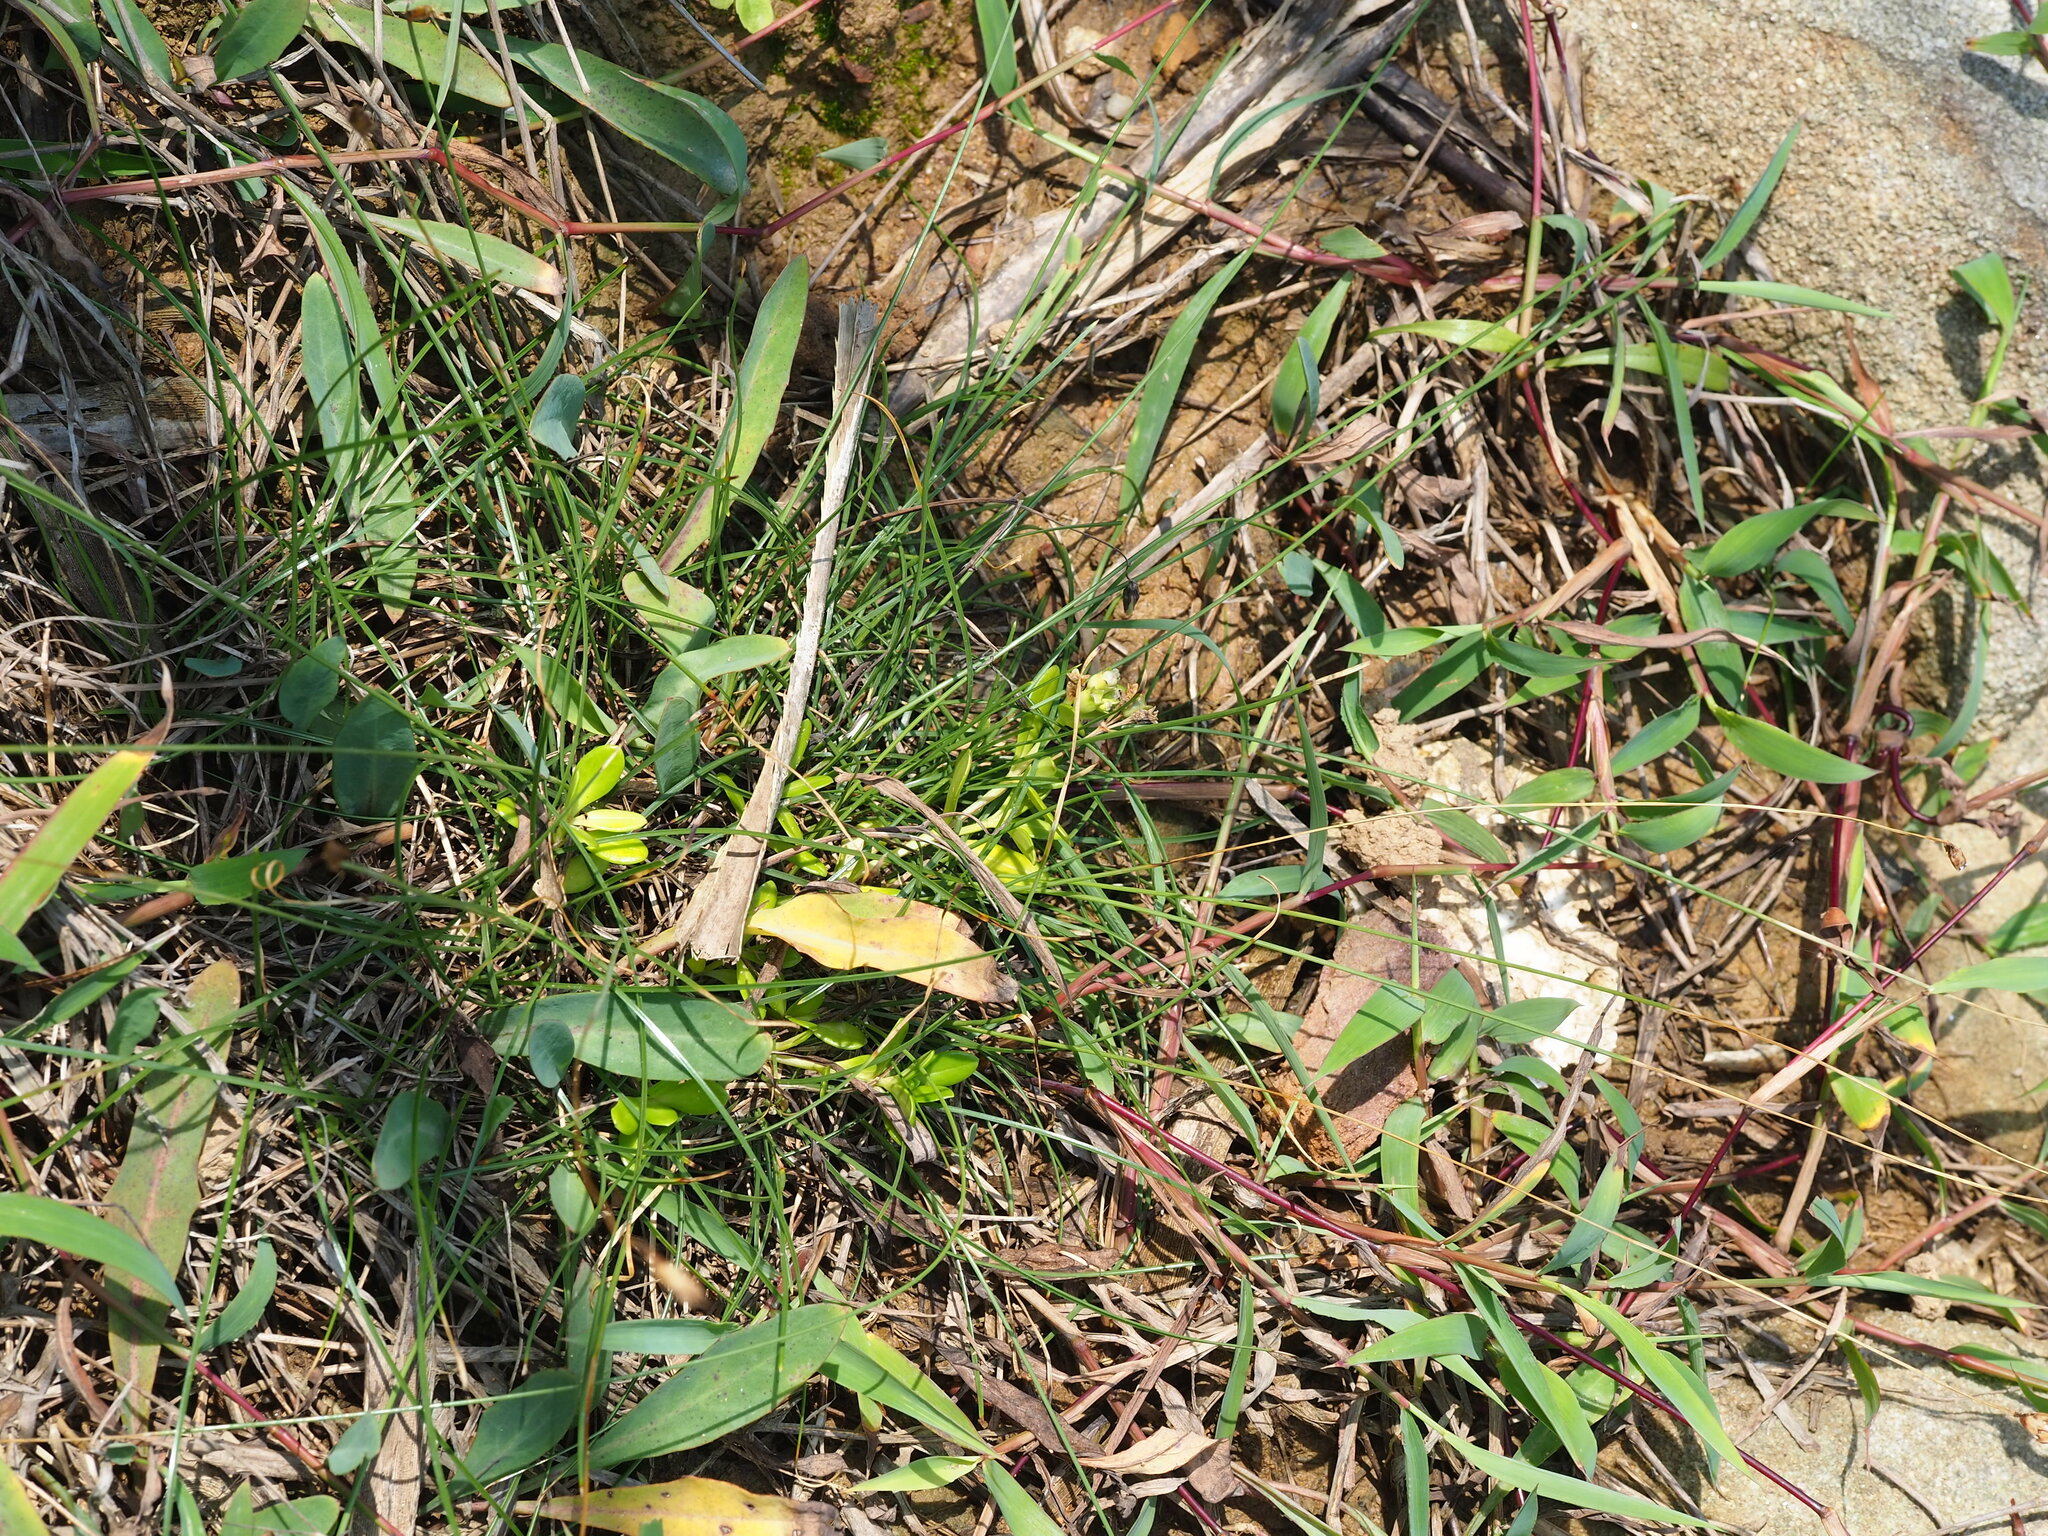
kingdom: Plantae
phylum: Tracheophyta
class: Liliopsida
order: Poales
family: Cyperaceae
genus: Abildgaardia
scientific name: Abildgaardia ovata
